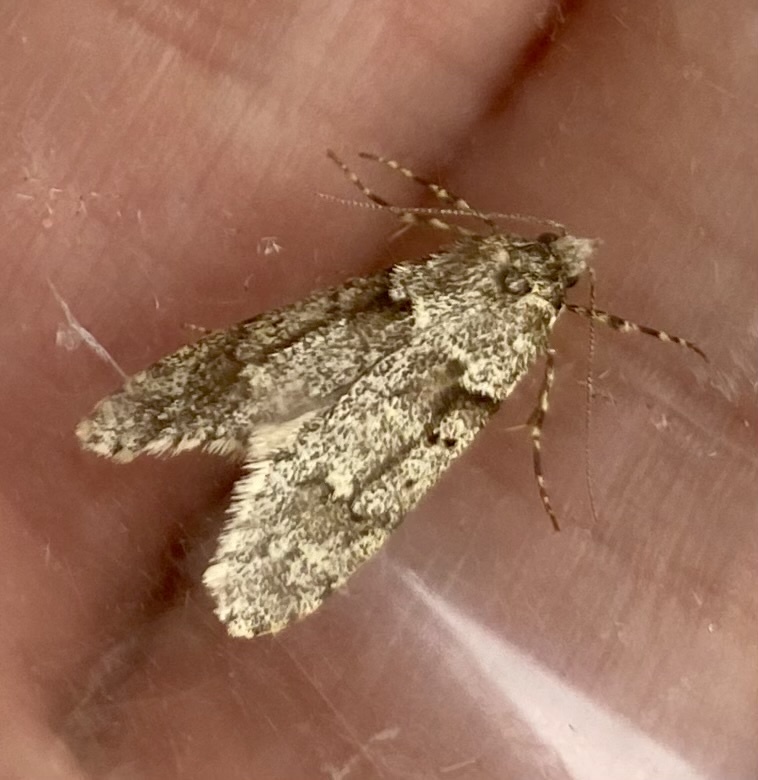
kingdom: Animalia
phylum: Arthropoda
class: Insecta
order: Lepidoptera
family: Lypusidae
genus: Diurnea
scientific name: Diurnea fagella
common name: March tubic
